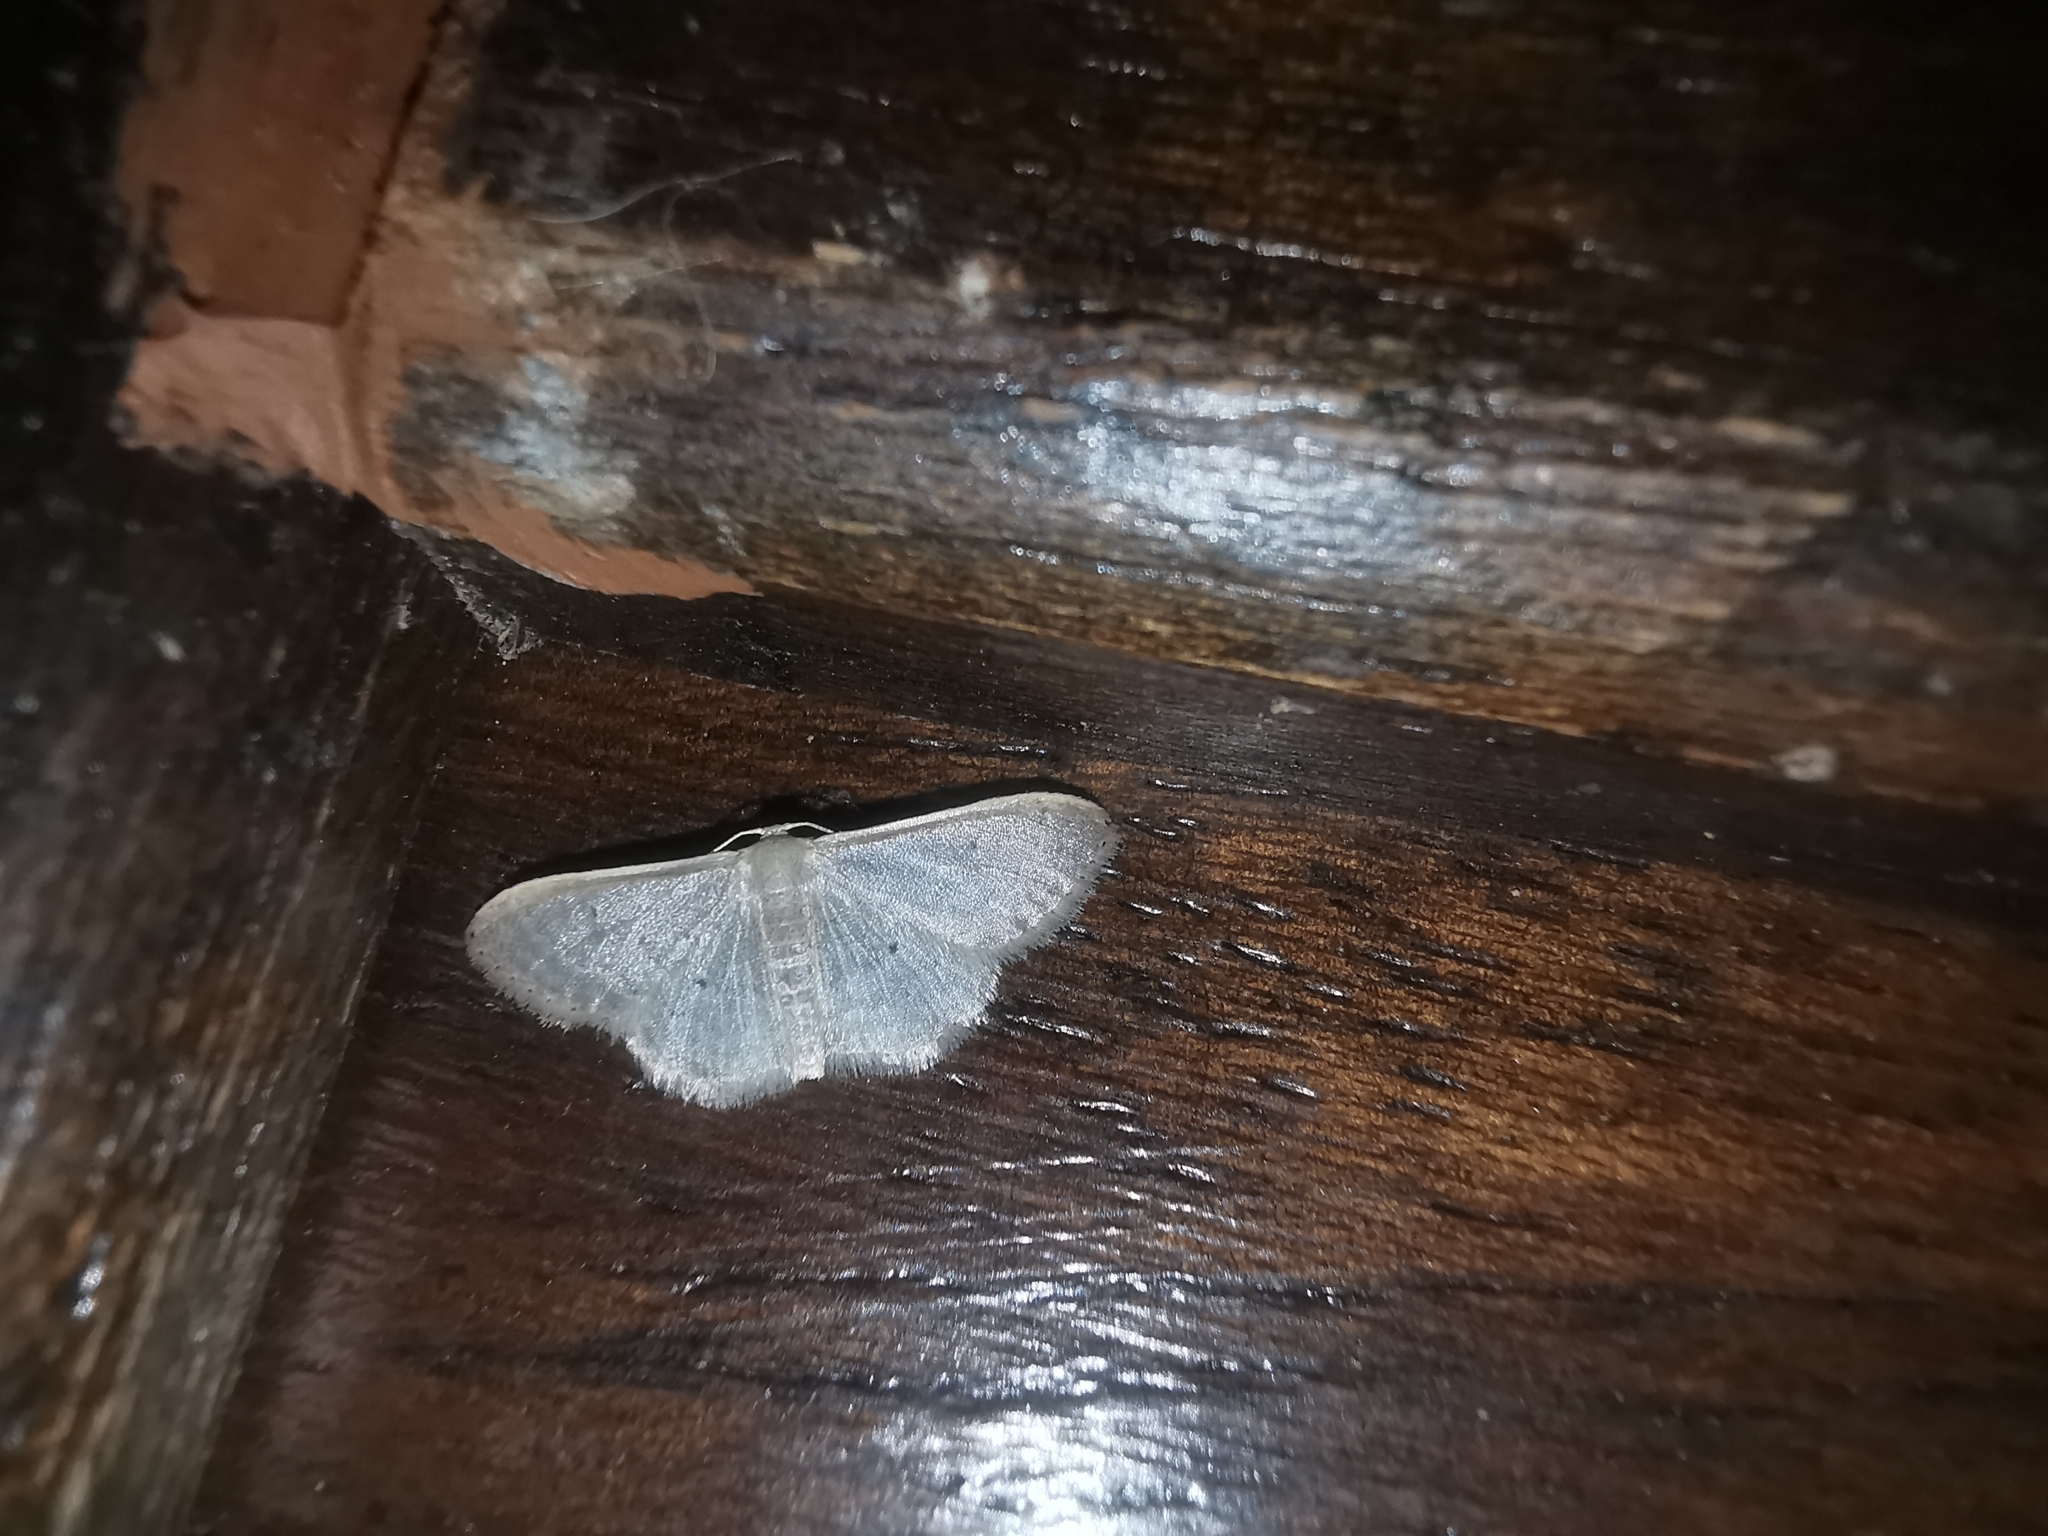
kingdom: Animalia
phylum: Arthropoda
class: Insecta
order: Lepidoptera
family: Geometridae
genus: Idaea
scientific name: Idaea distinctaria
